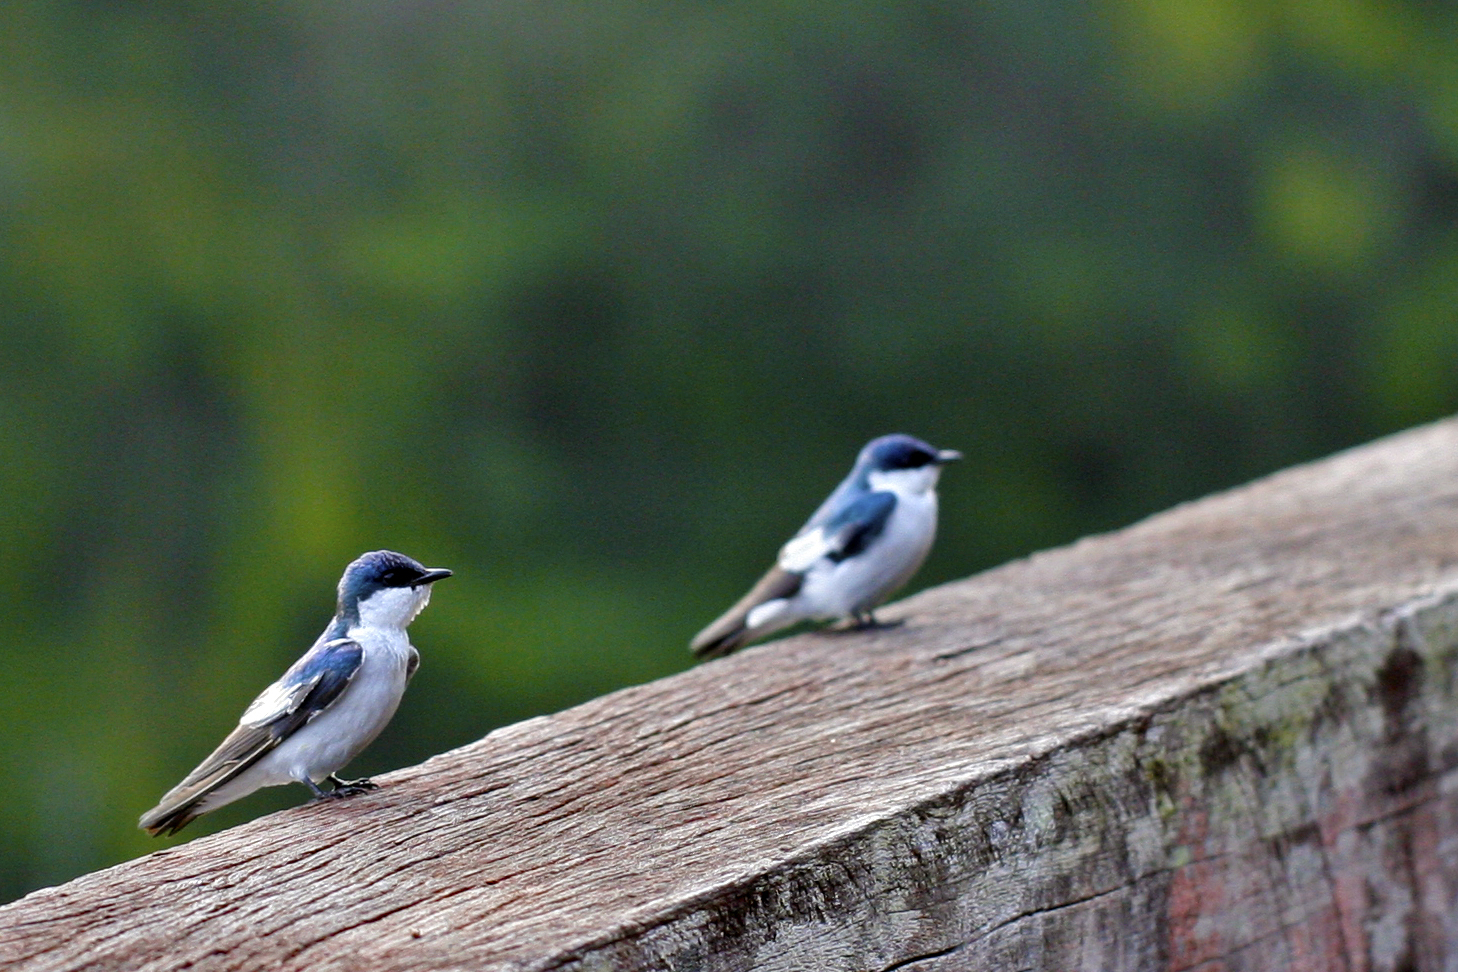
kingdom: Animalia
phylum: Chordata
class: Aves
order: Passeriformes
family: Hirundinidae
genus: Tachycineta
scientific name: Tachycineta albiventer
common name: White-winged swallow
